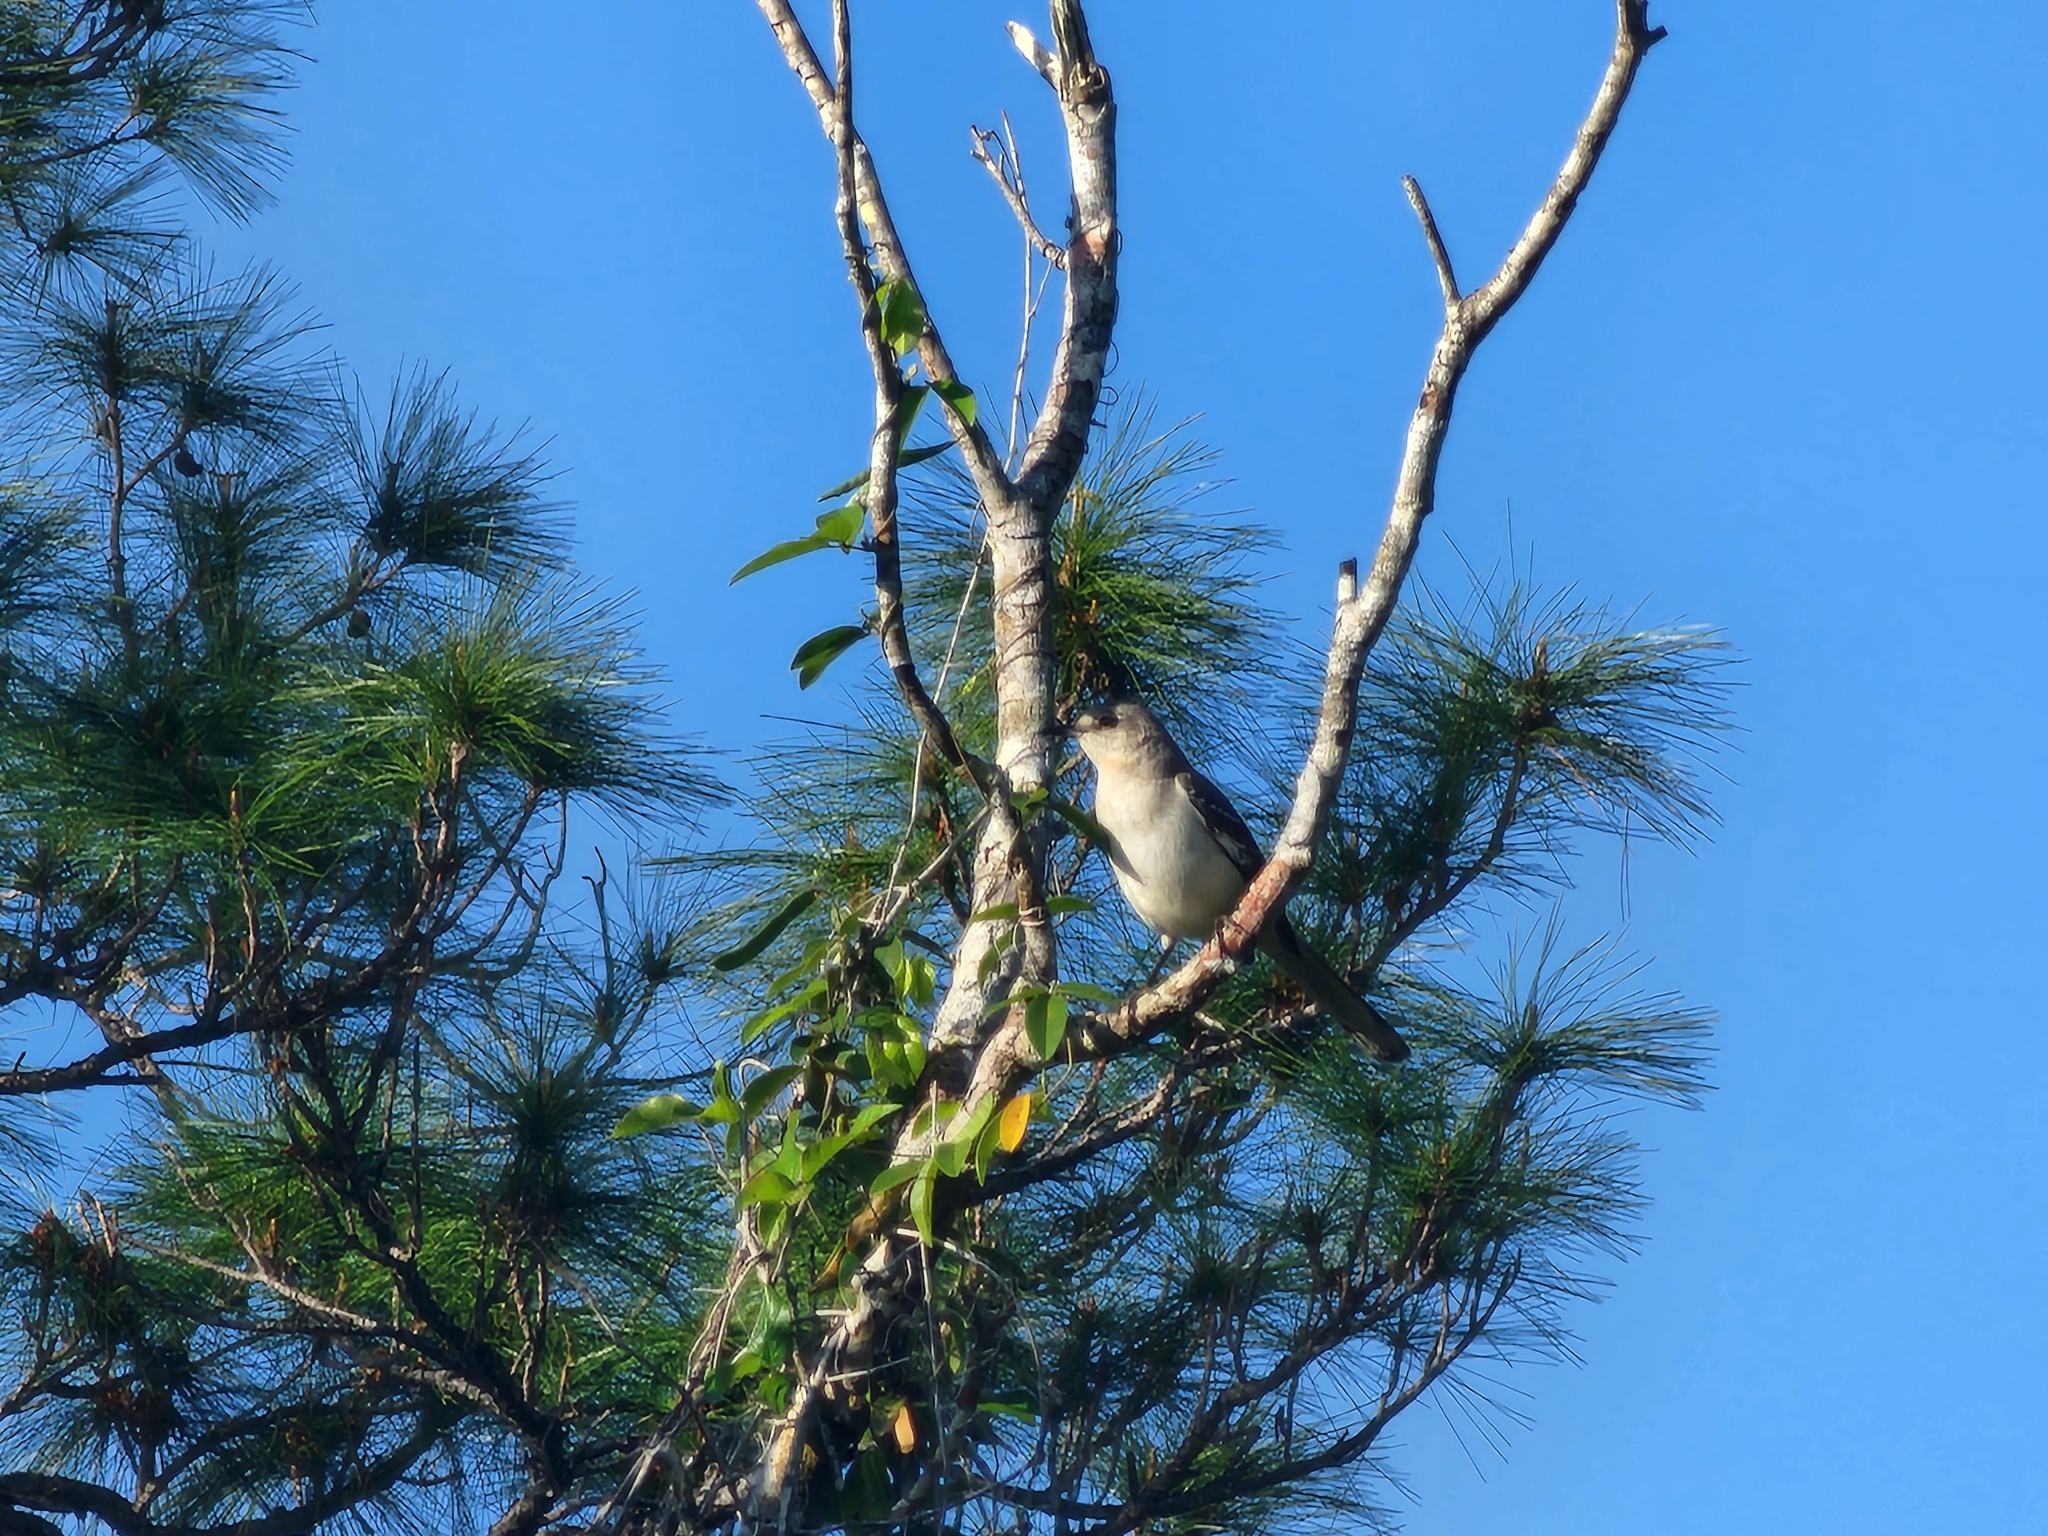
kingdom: Animalia
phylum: Chordata
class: Aves
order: Passeriformes
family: Mimidae
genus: Mimus
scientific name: Mimus polyglottos
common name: Northern mockingbird
